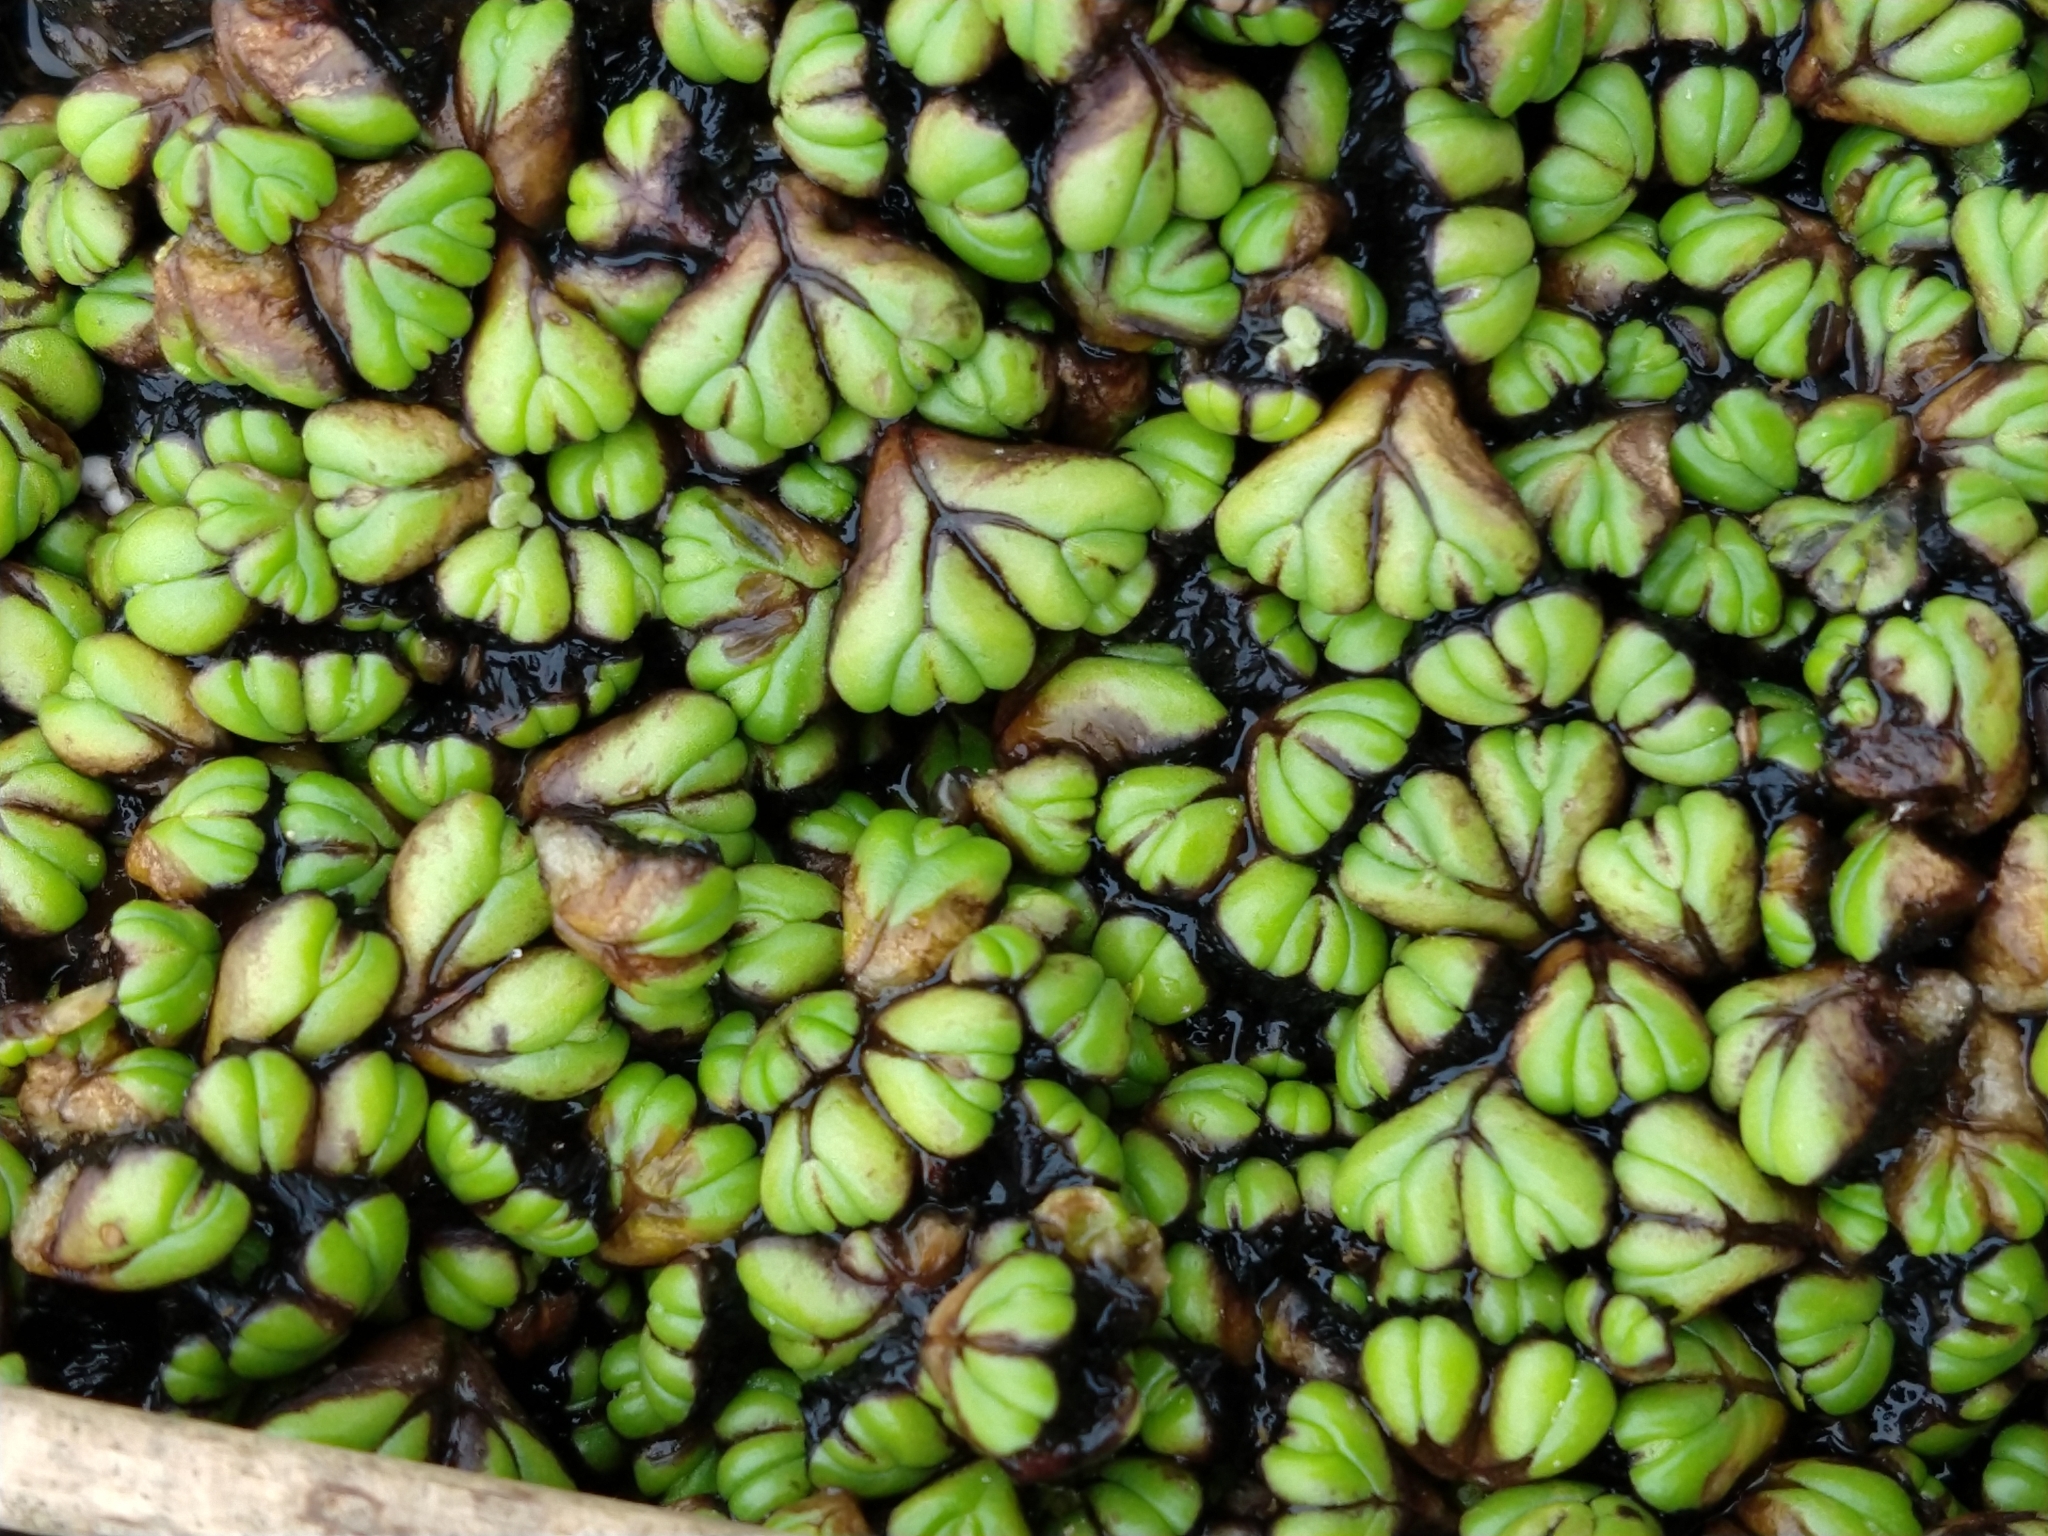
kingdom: Plantae
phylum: Marchantiophyta
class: Marchantiopsida
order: Marchantiales
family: Ricciaceae
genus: Ricciocarpos
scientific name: Ricciocarpos natans
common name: Purple-fringed liverwort
